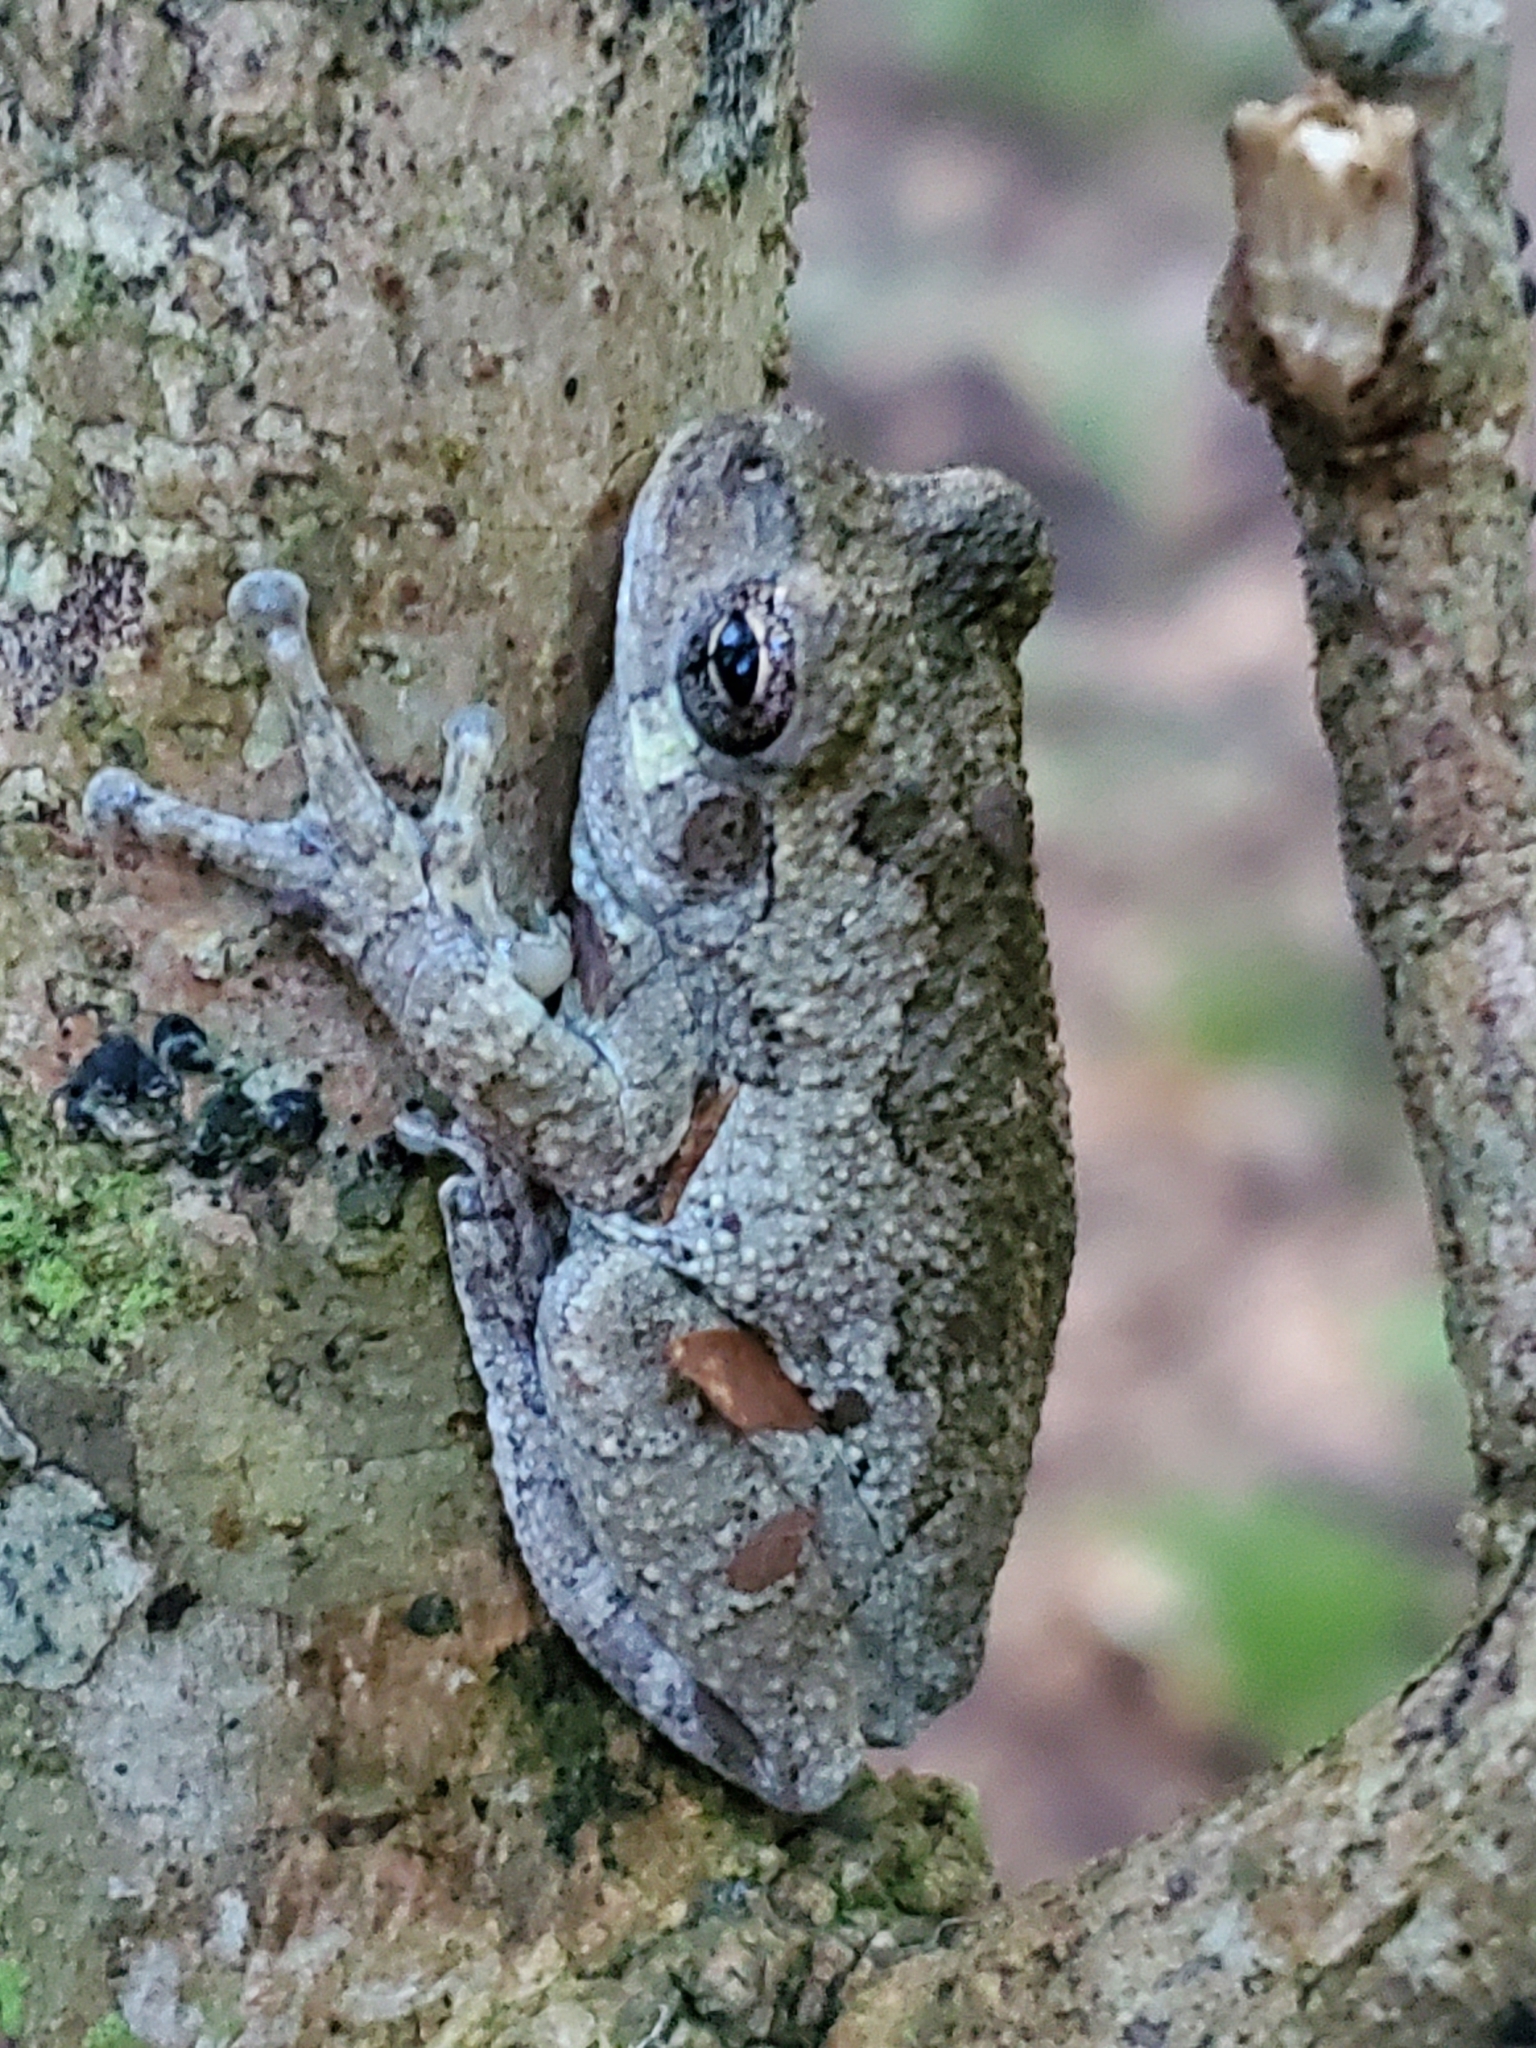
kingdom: Animalia
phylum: Chordata
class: Amphibia
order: Anura
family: Hylidae
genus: Dryophytes
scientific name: Dryophytes chrysoscelis
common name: Cope's gray treefrog
